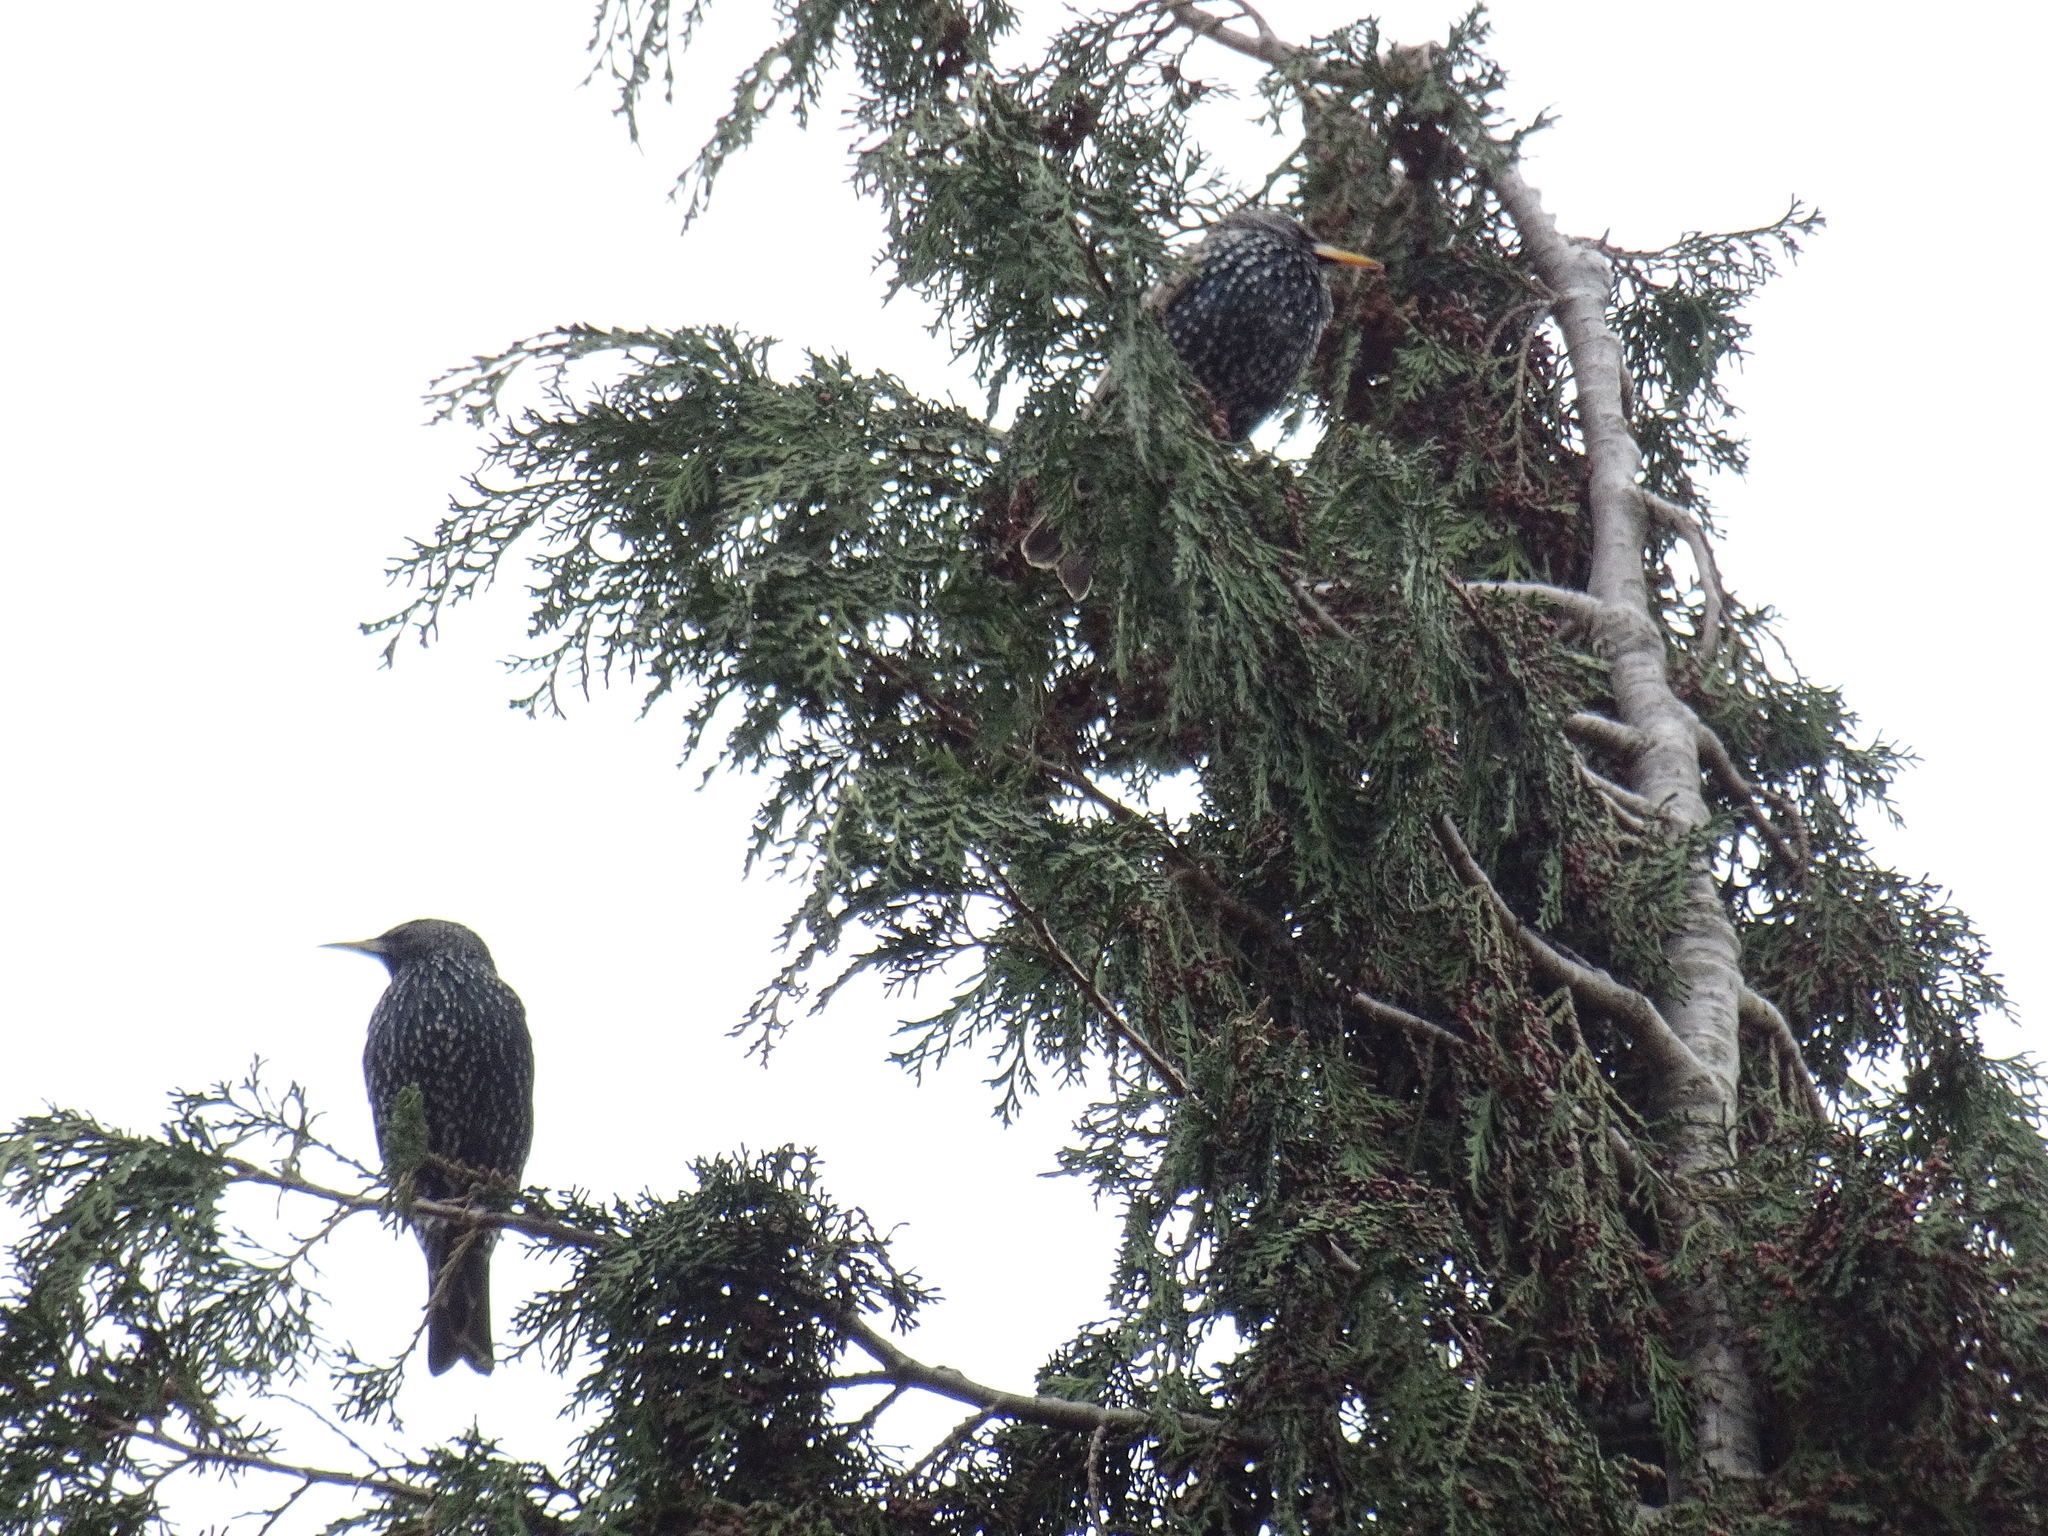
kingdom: Animalia
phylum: Chordata
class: Aves
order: Passeriformes
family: Sturnidae
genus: Sturnus
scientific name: Sturnus vulgaris
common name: Common starling
